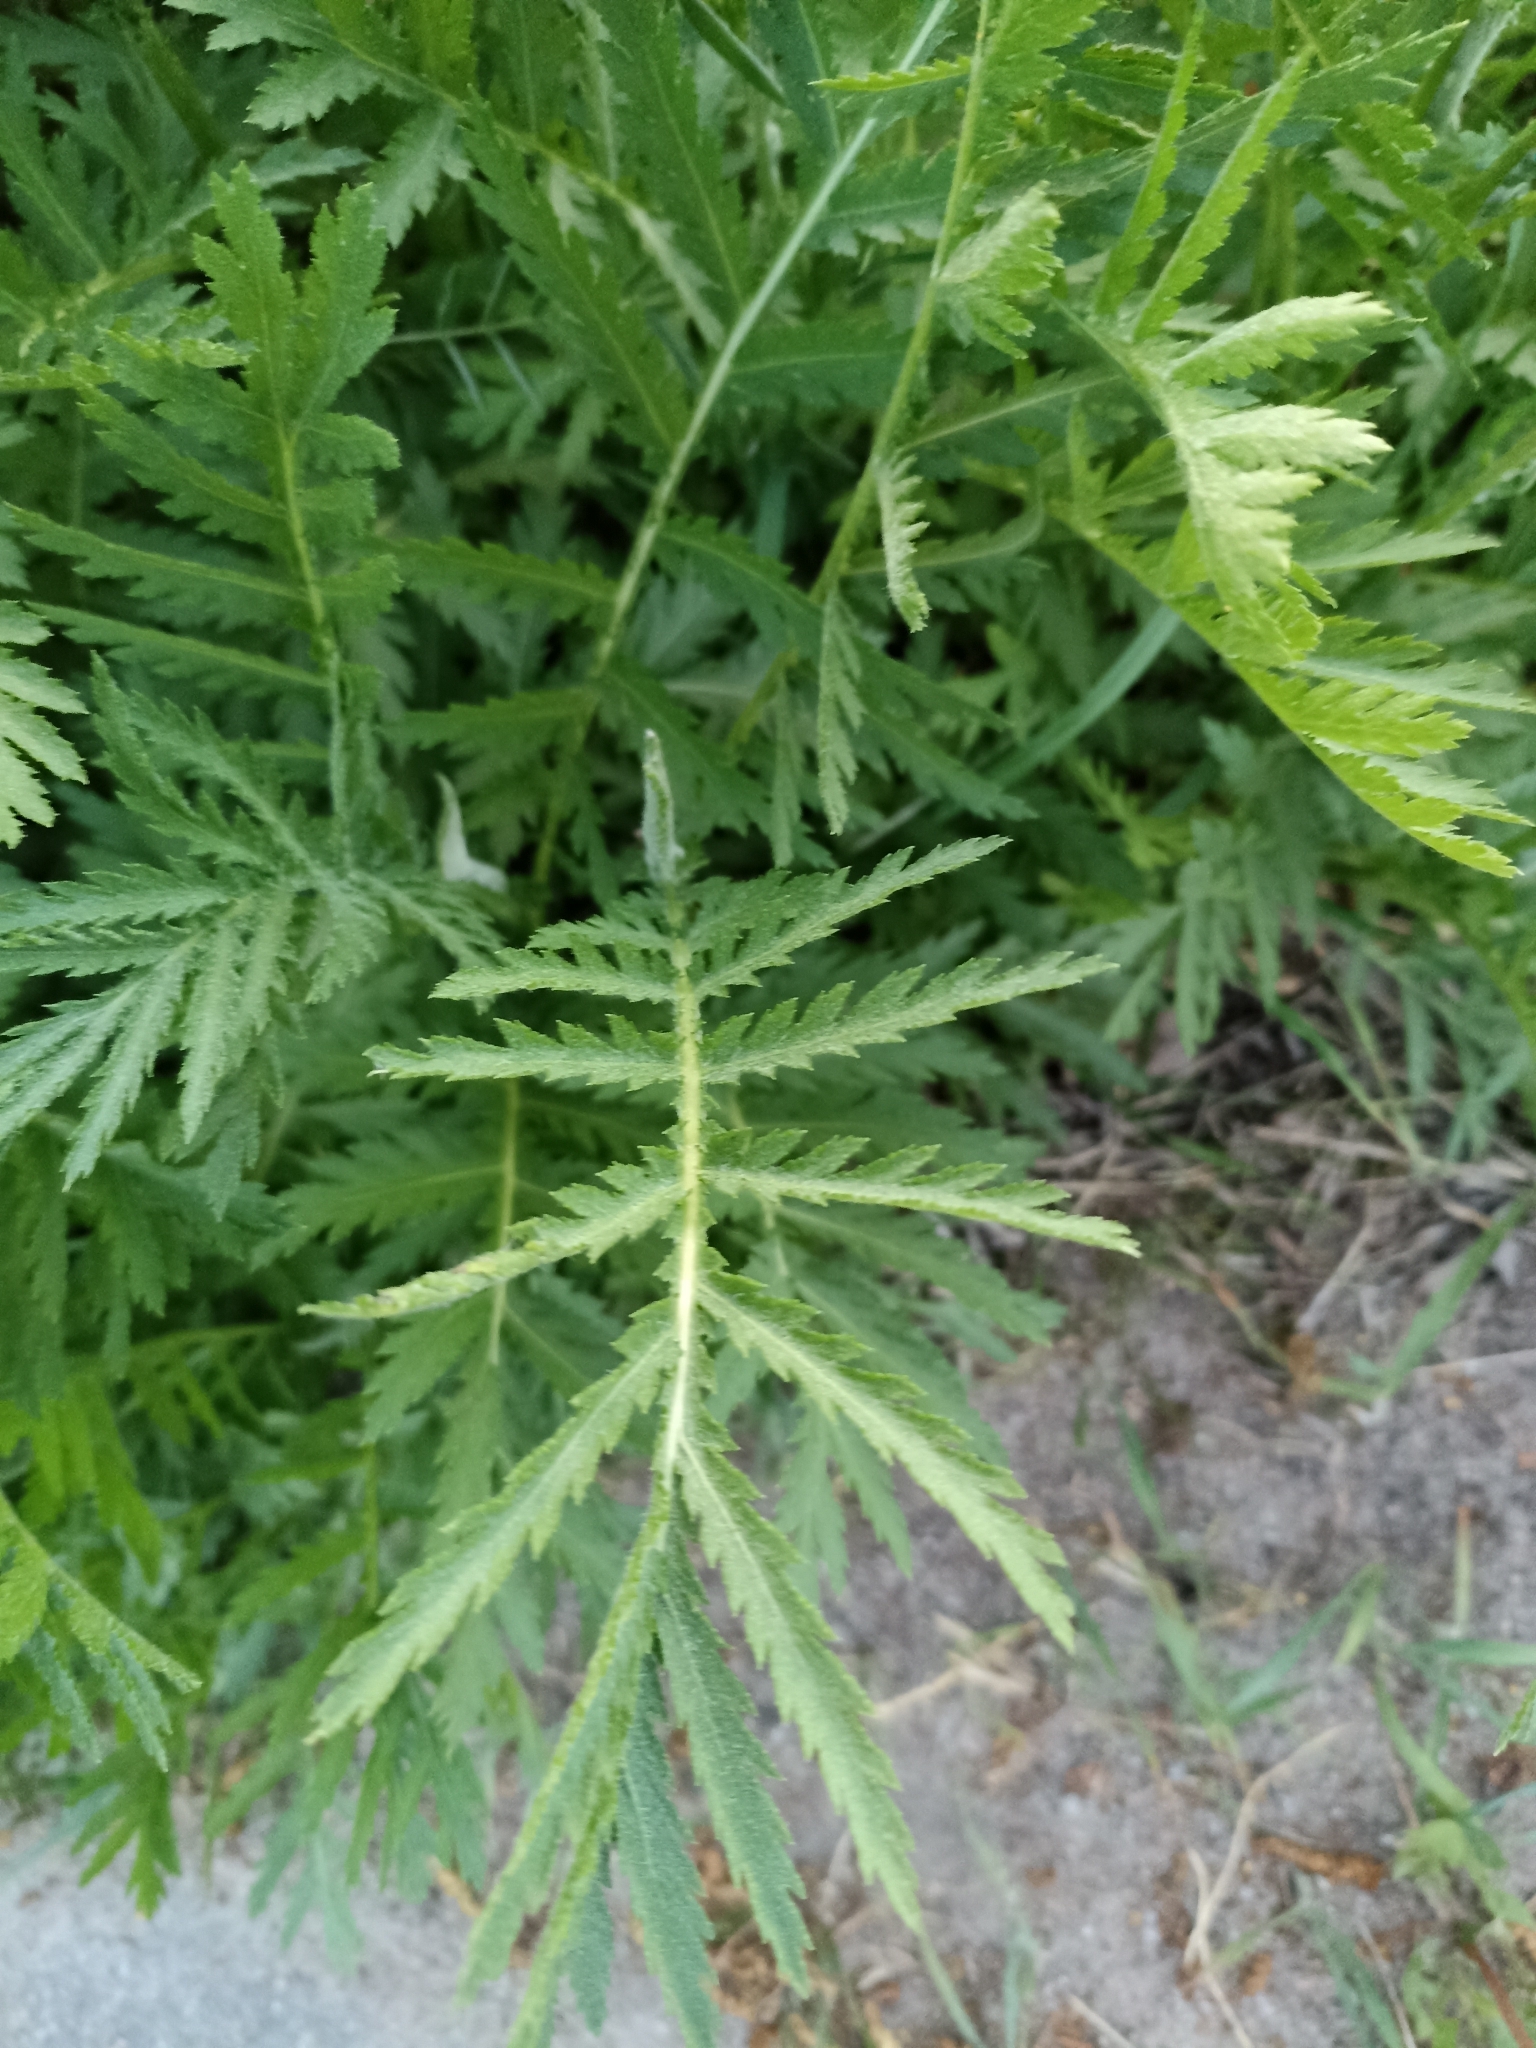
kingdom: Plantae
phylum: Tracheophyta
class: Magnoliopsida
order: Asterales
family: Asteraceae
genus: Tanacetum
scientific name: Tanacetum vulgare
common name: Common tansy
